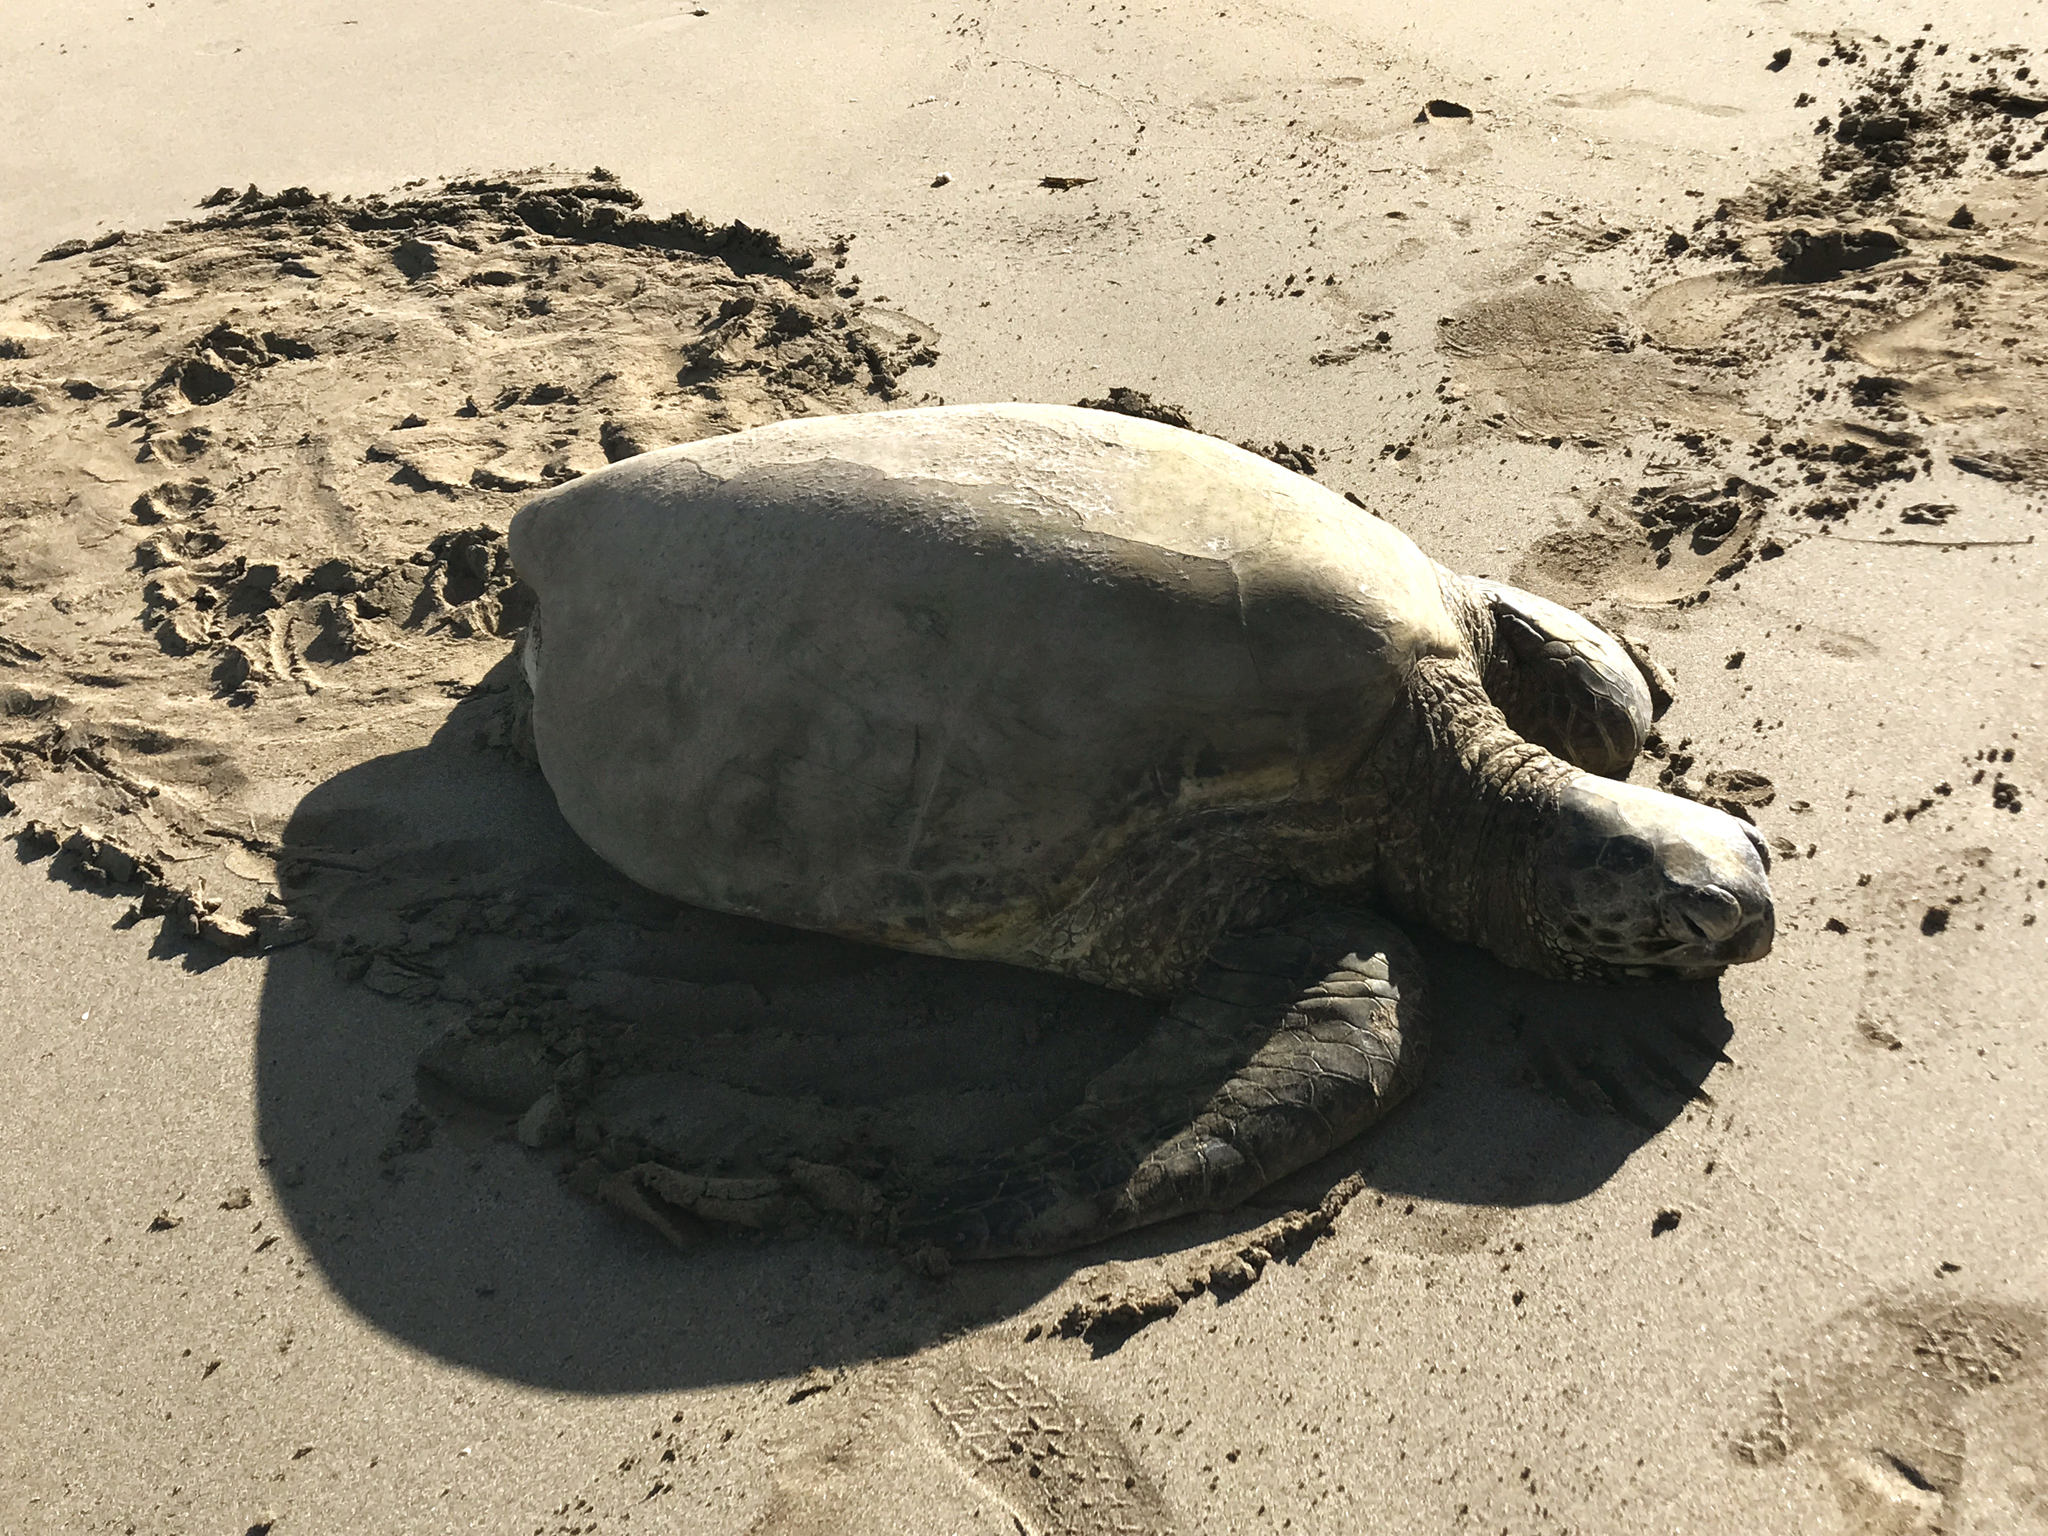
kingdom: Animalia
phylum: Chordata
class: Testudines
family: Cheloniidae
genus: Chelonia
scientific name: Chelonia mydas
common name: Green turtle
